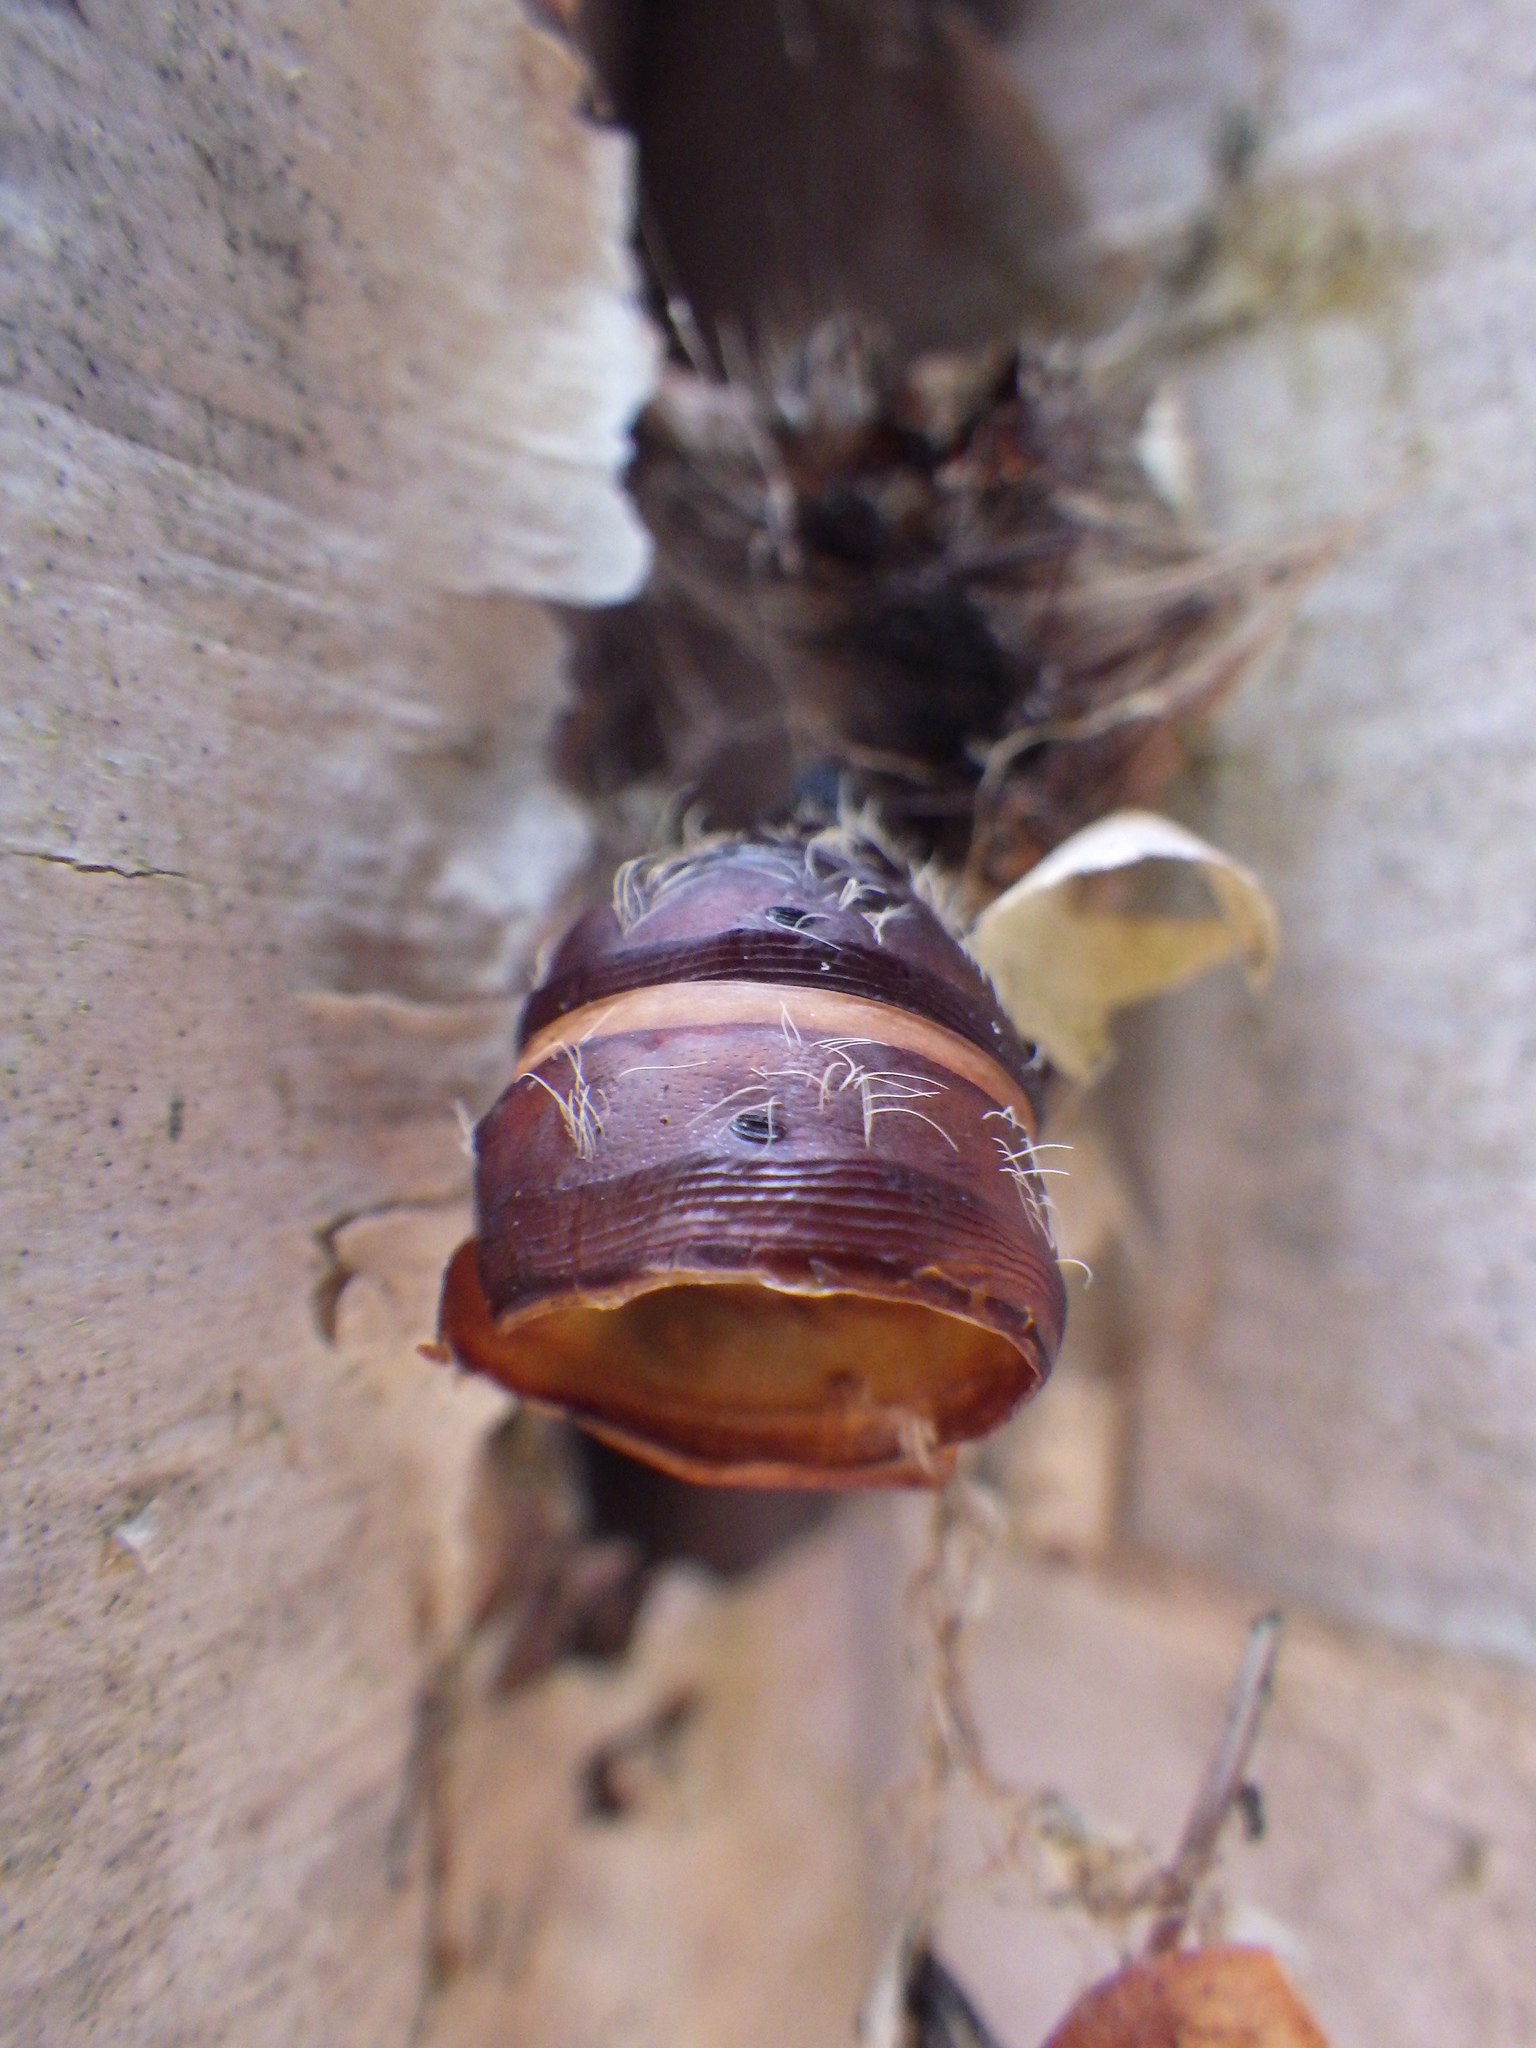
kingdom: Animalia
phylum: Arthropoda
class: Insecta
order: Lepidoptera
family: Erebidae
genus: Lymantria
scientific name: Lymantria dispar
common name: Gypsy moth
